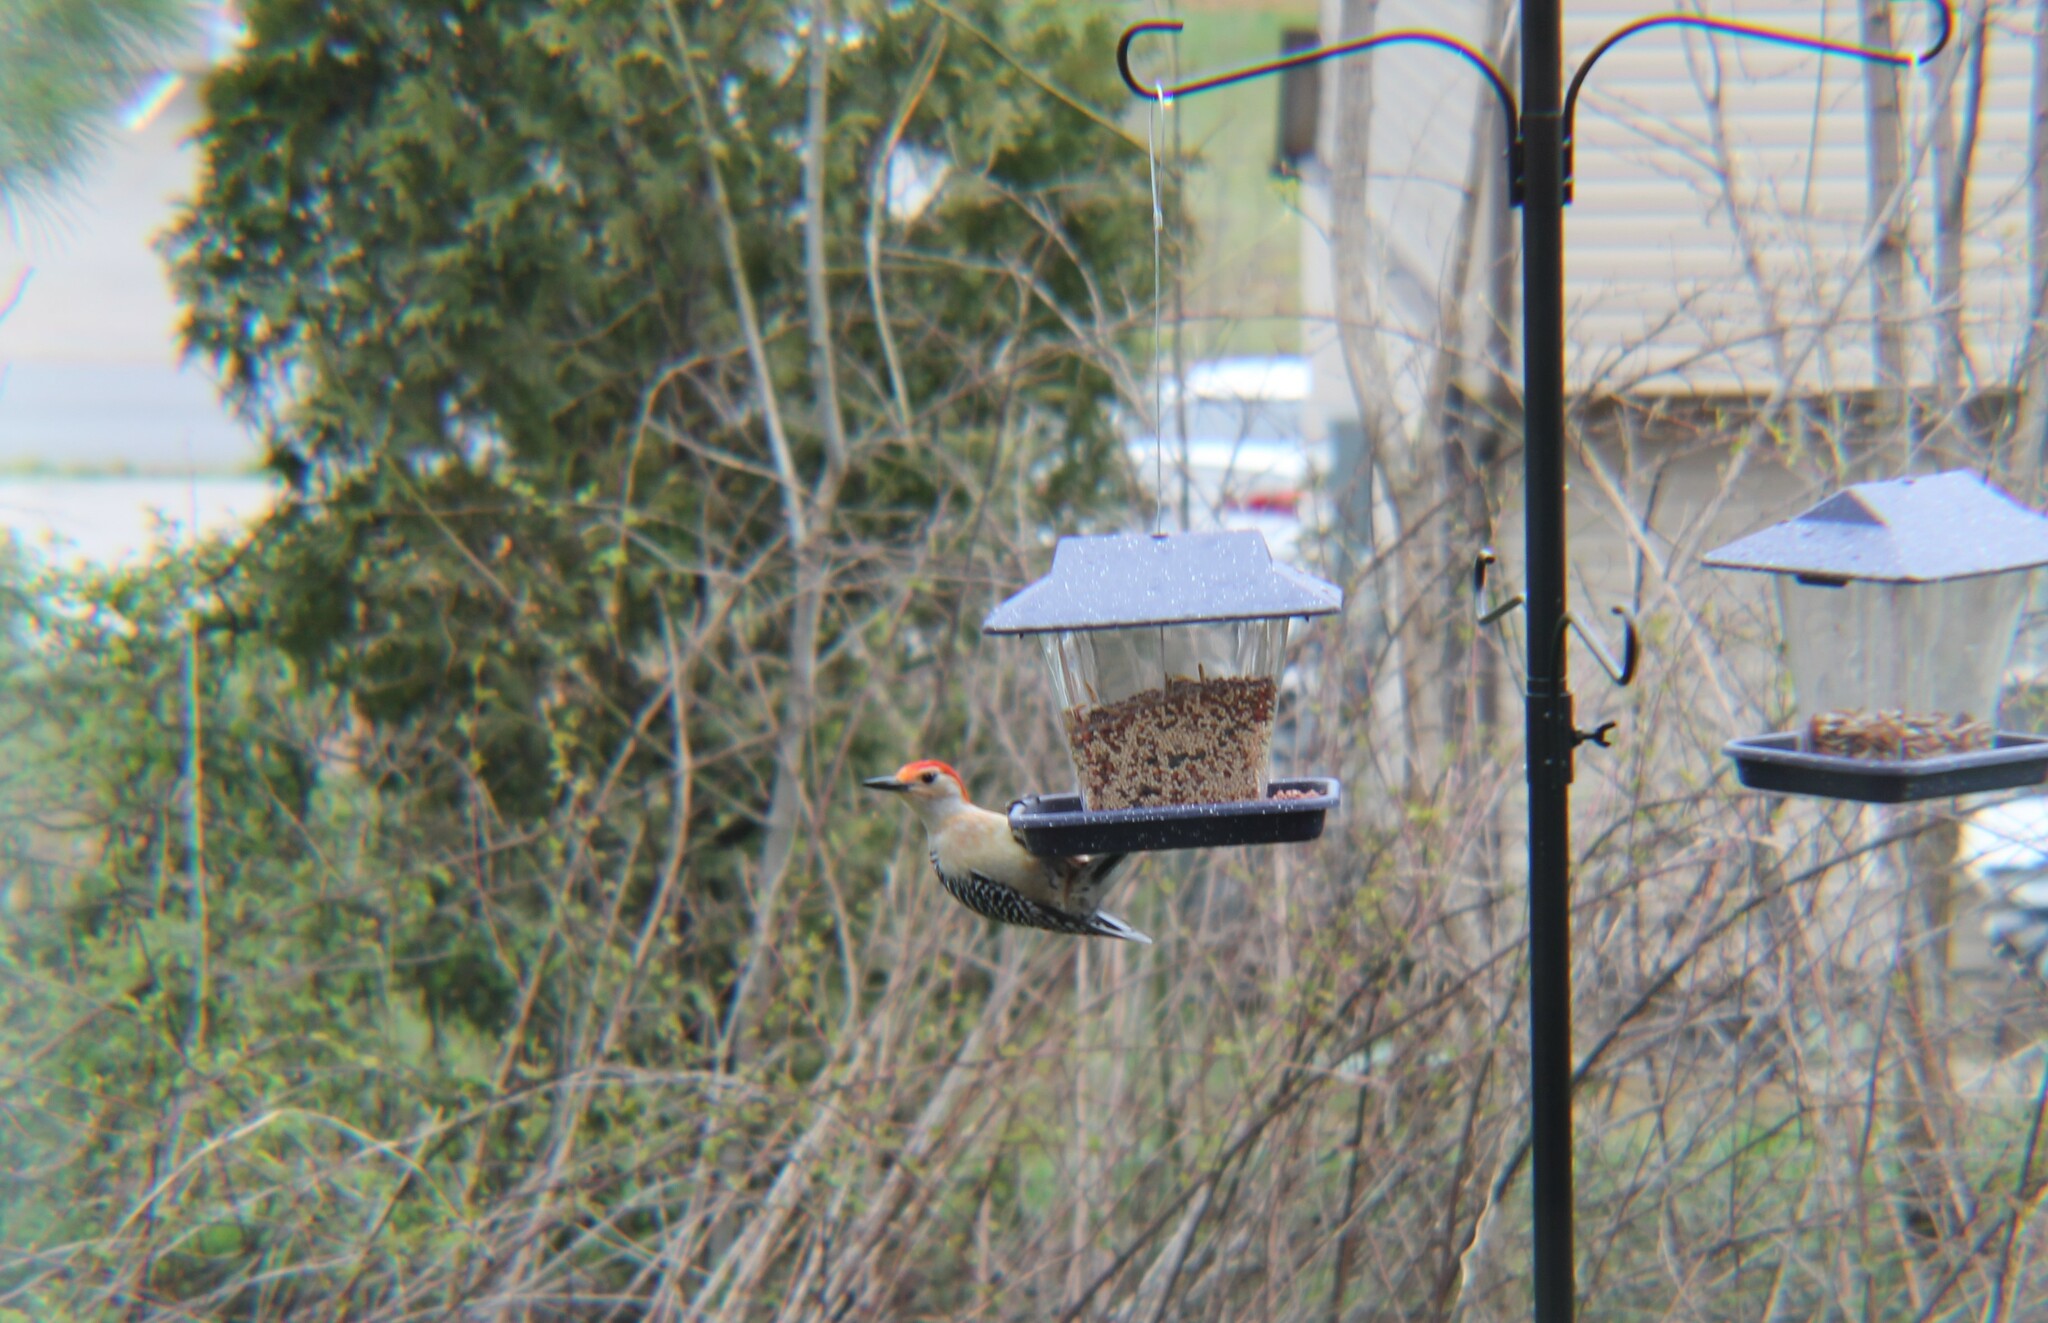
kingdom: Animalia
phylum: Chordata
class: Aves
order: Piciformes
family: Picidae
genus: Melanerpes
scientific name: Melanerpes carolinus
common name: Red-bellied woodpecker
